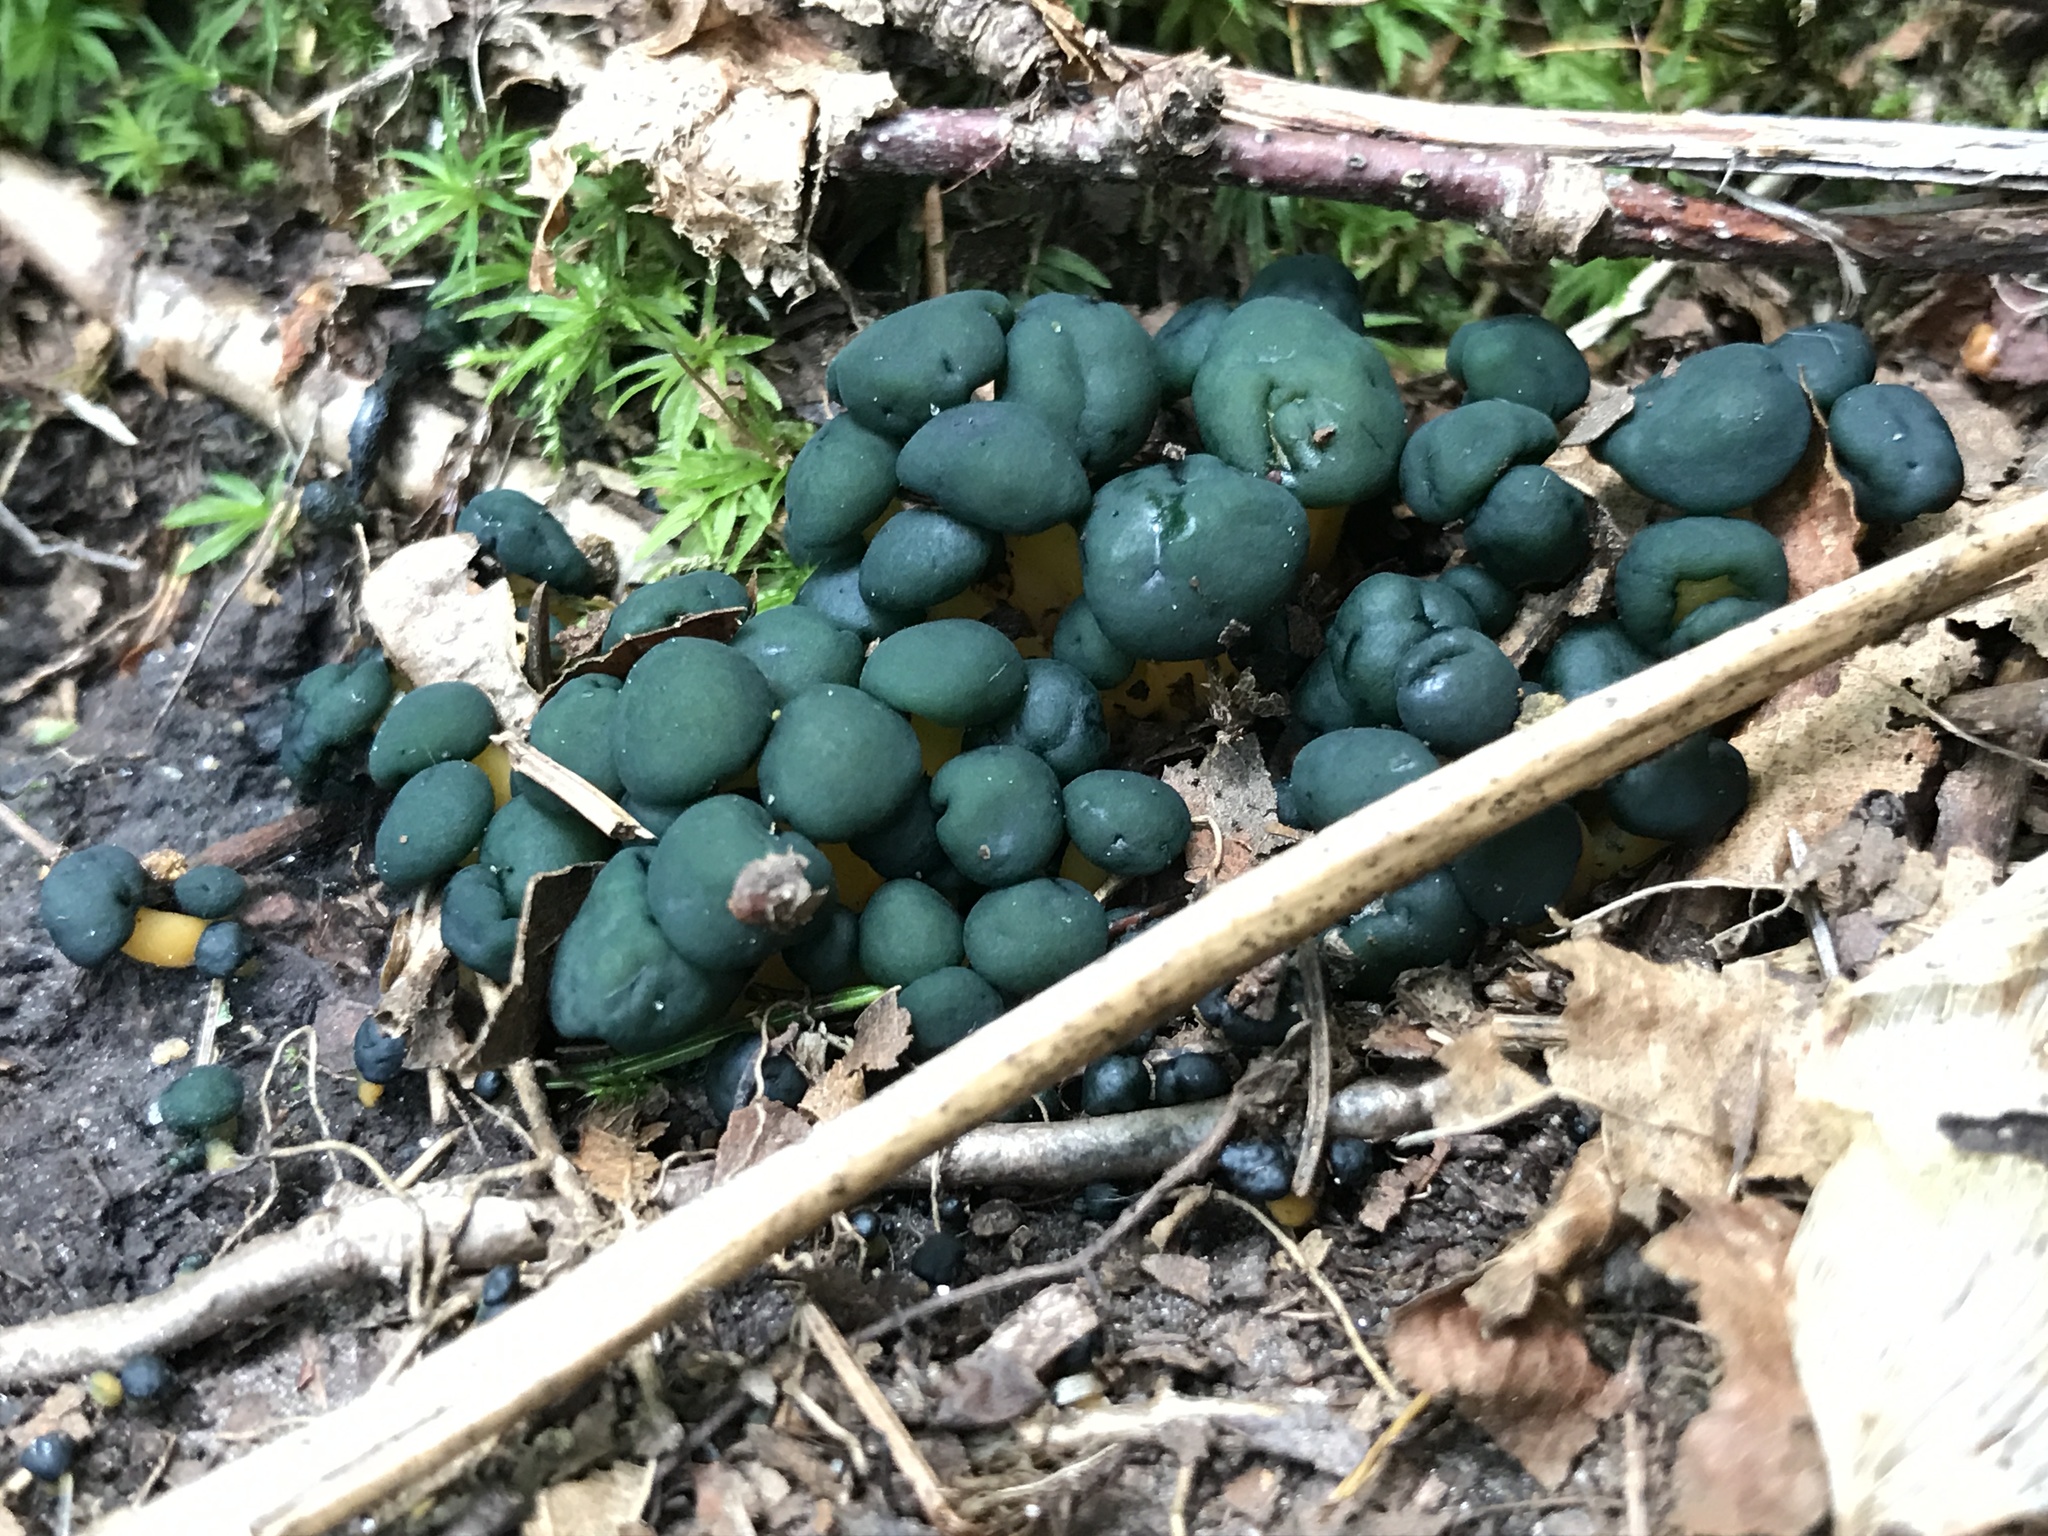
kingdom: Fungi
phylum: Ascomycota
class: Leotiomycetes
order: Leotiales
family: Leotiaceae
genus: Leotia
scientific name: Leotia lubrica
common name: Jellybaby
